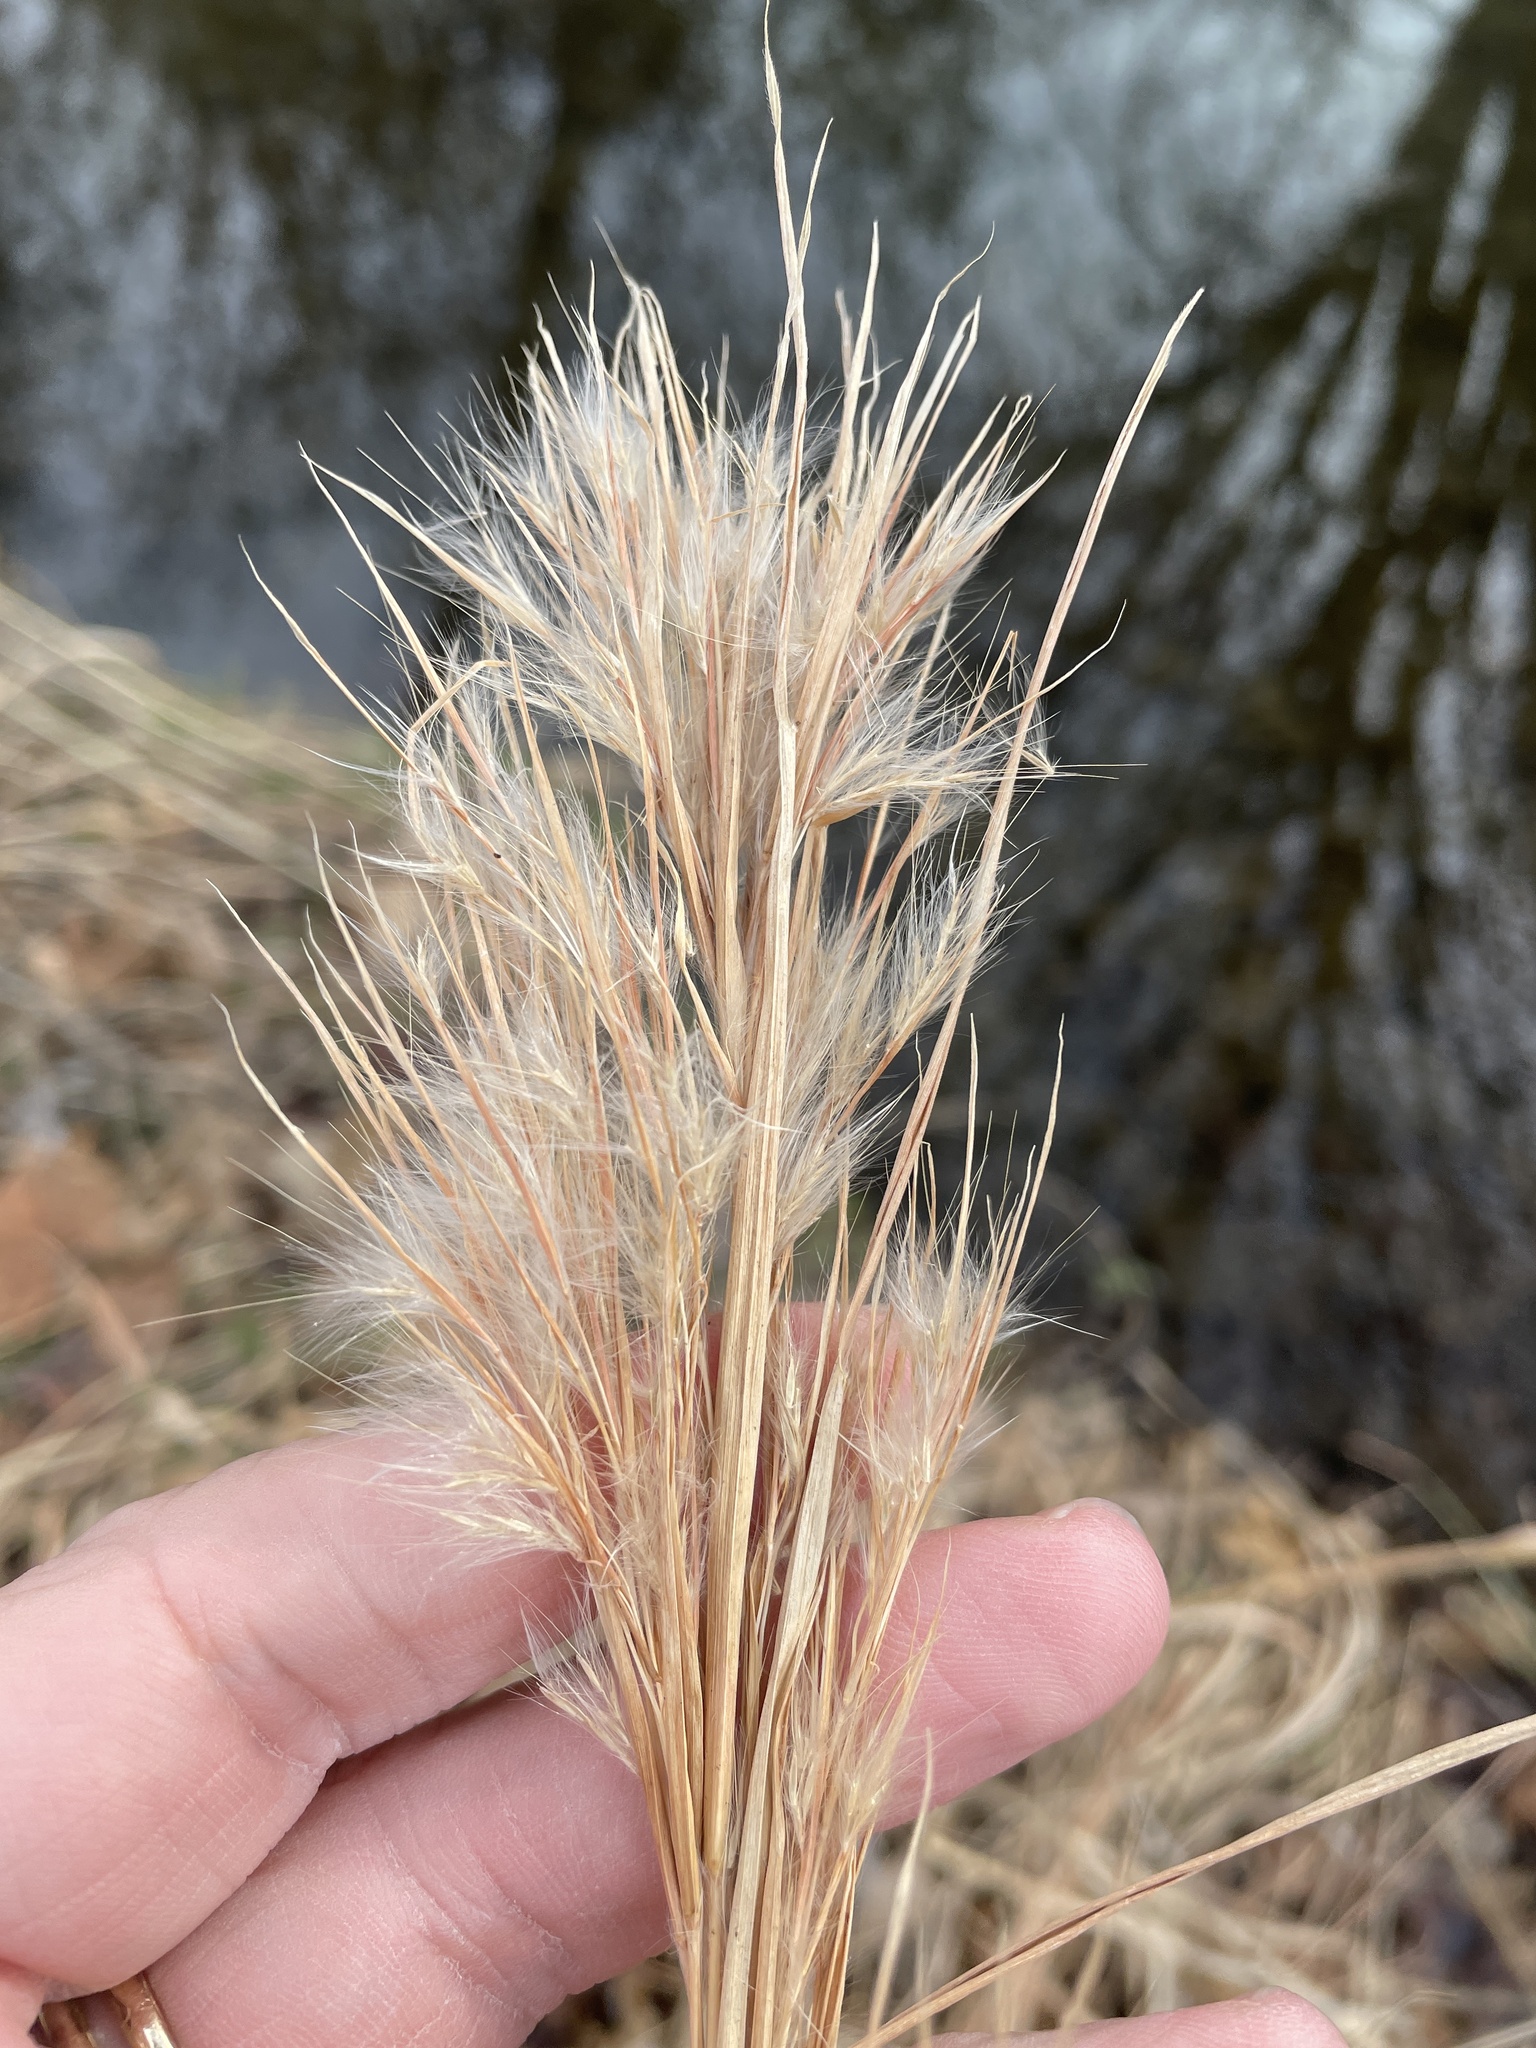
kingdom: Plantae
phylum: Tracheophyta
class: Liliopsida
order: Poales
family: Poaceae
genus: Andropogon
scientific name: Andropogon tenuispatheus
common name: Bushy bluestem
